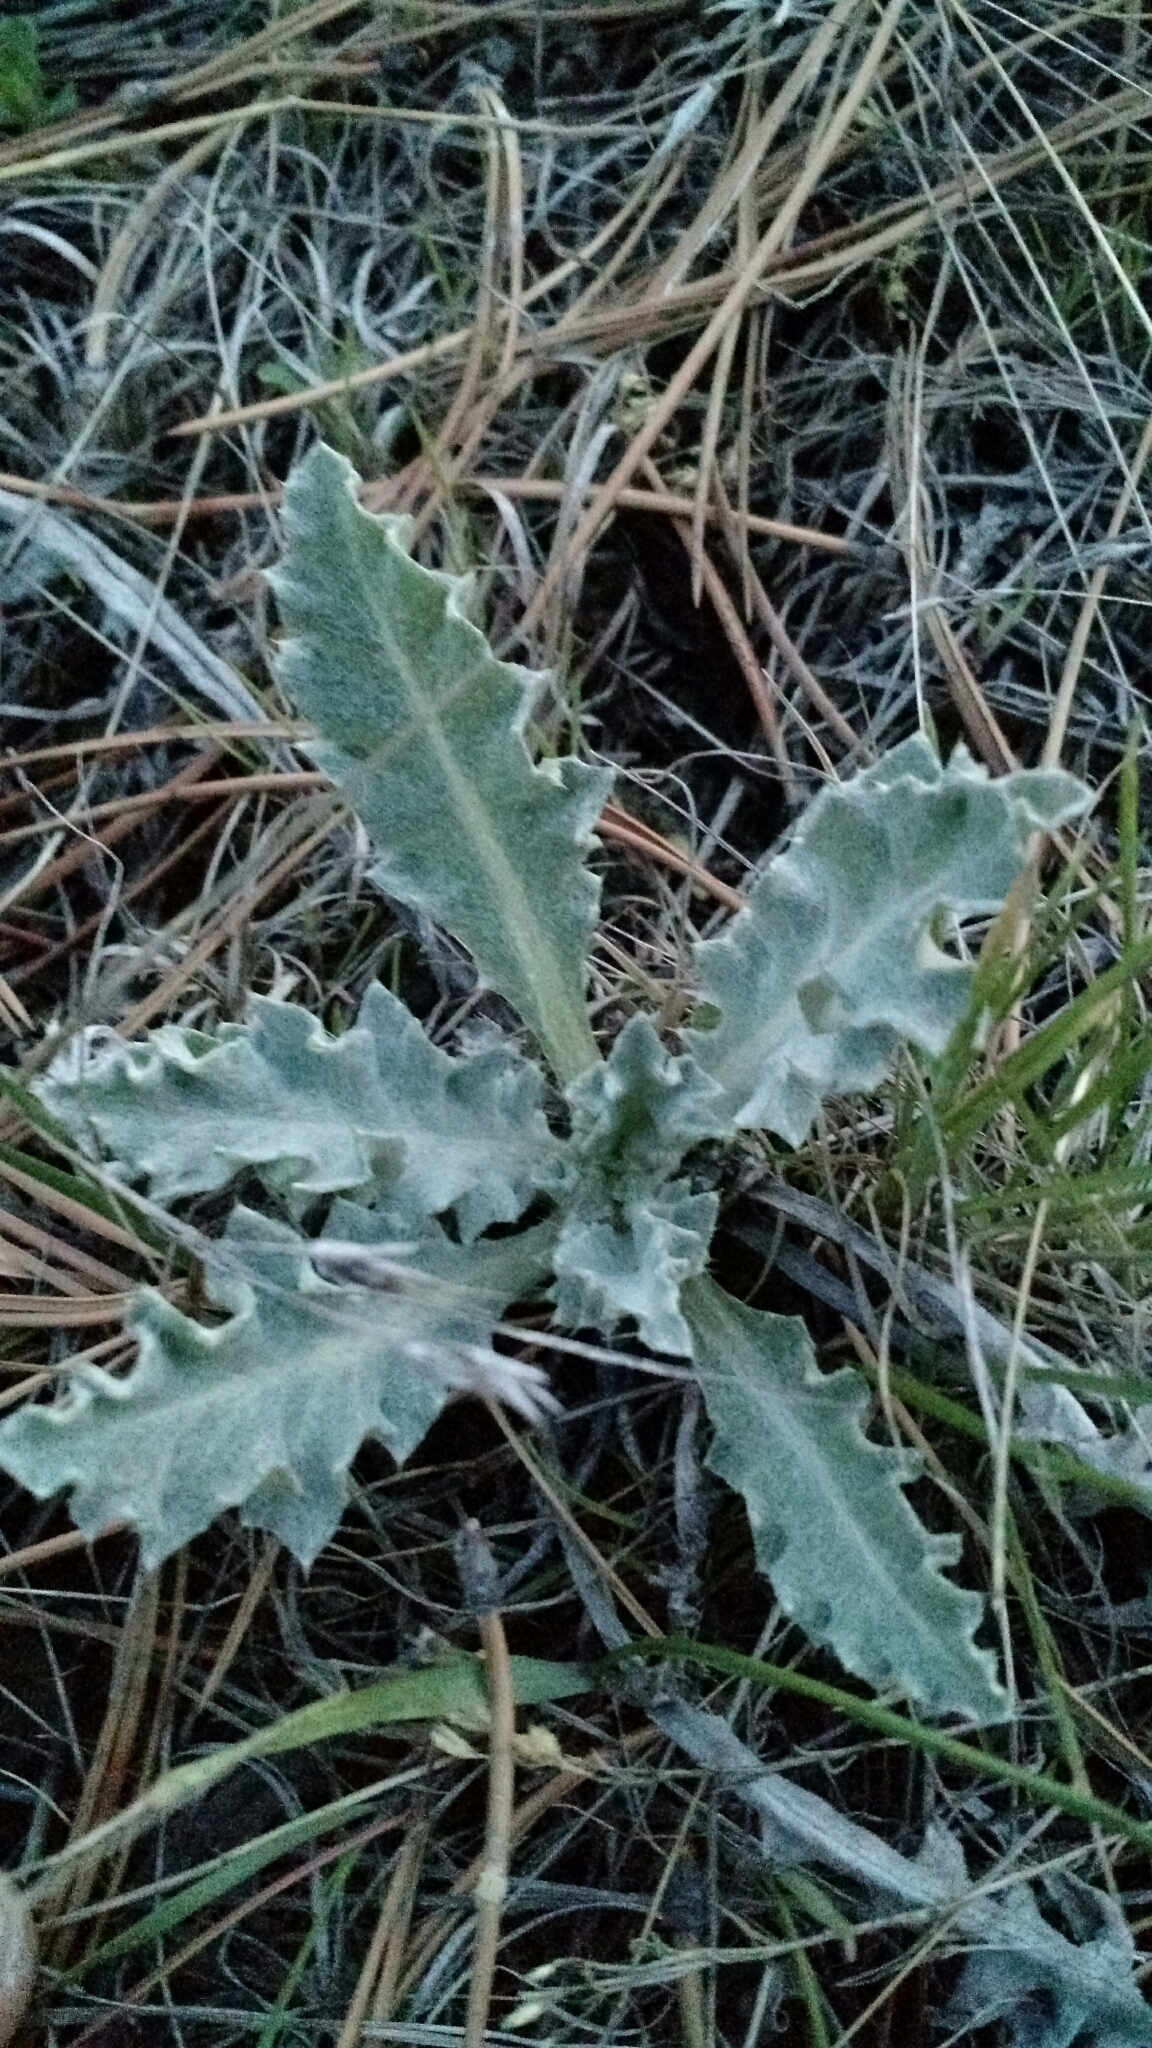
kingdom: Plantae
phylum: Tracheophyta
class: Magnoliopsida
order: Asterales
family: Asteraceae
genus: Cirsium
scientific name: Cirsium undulatum
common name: Pasture thistle
